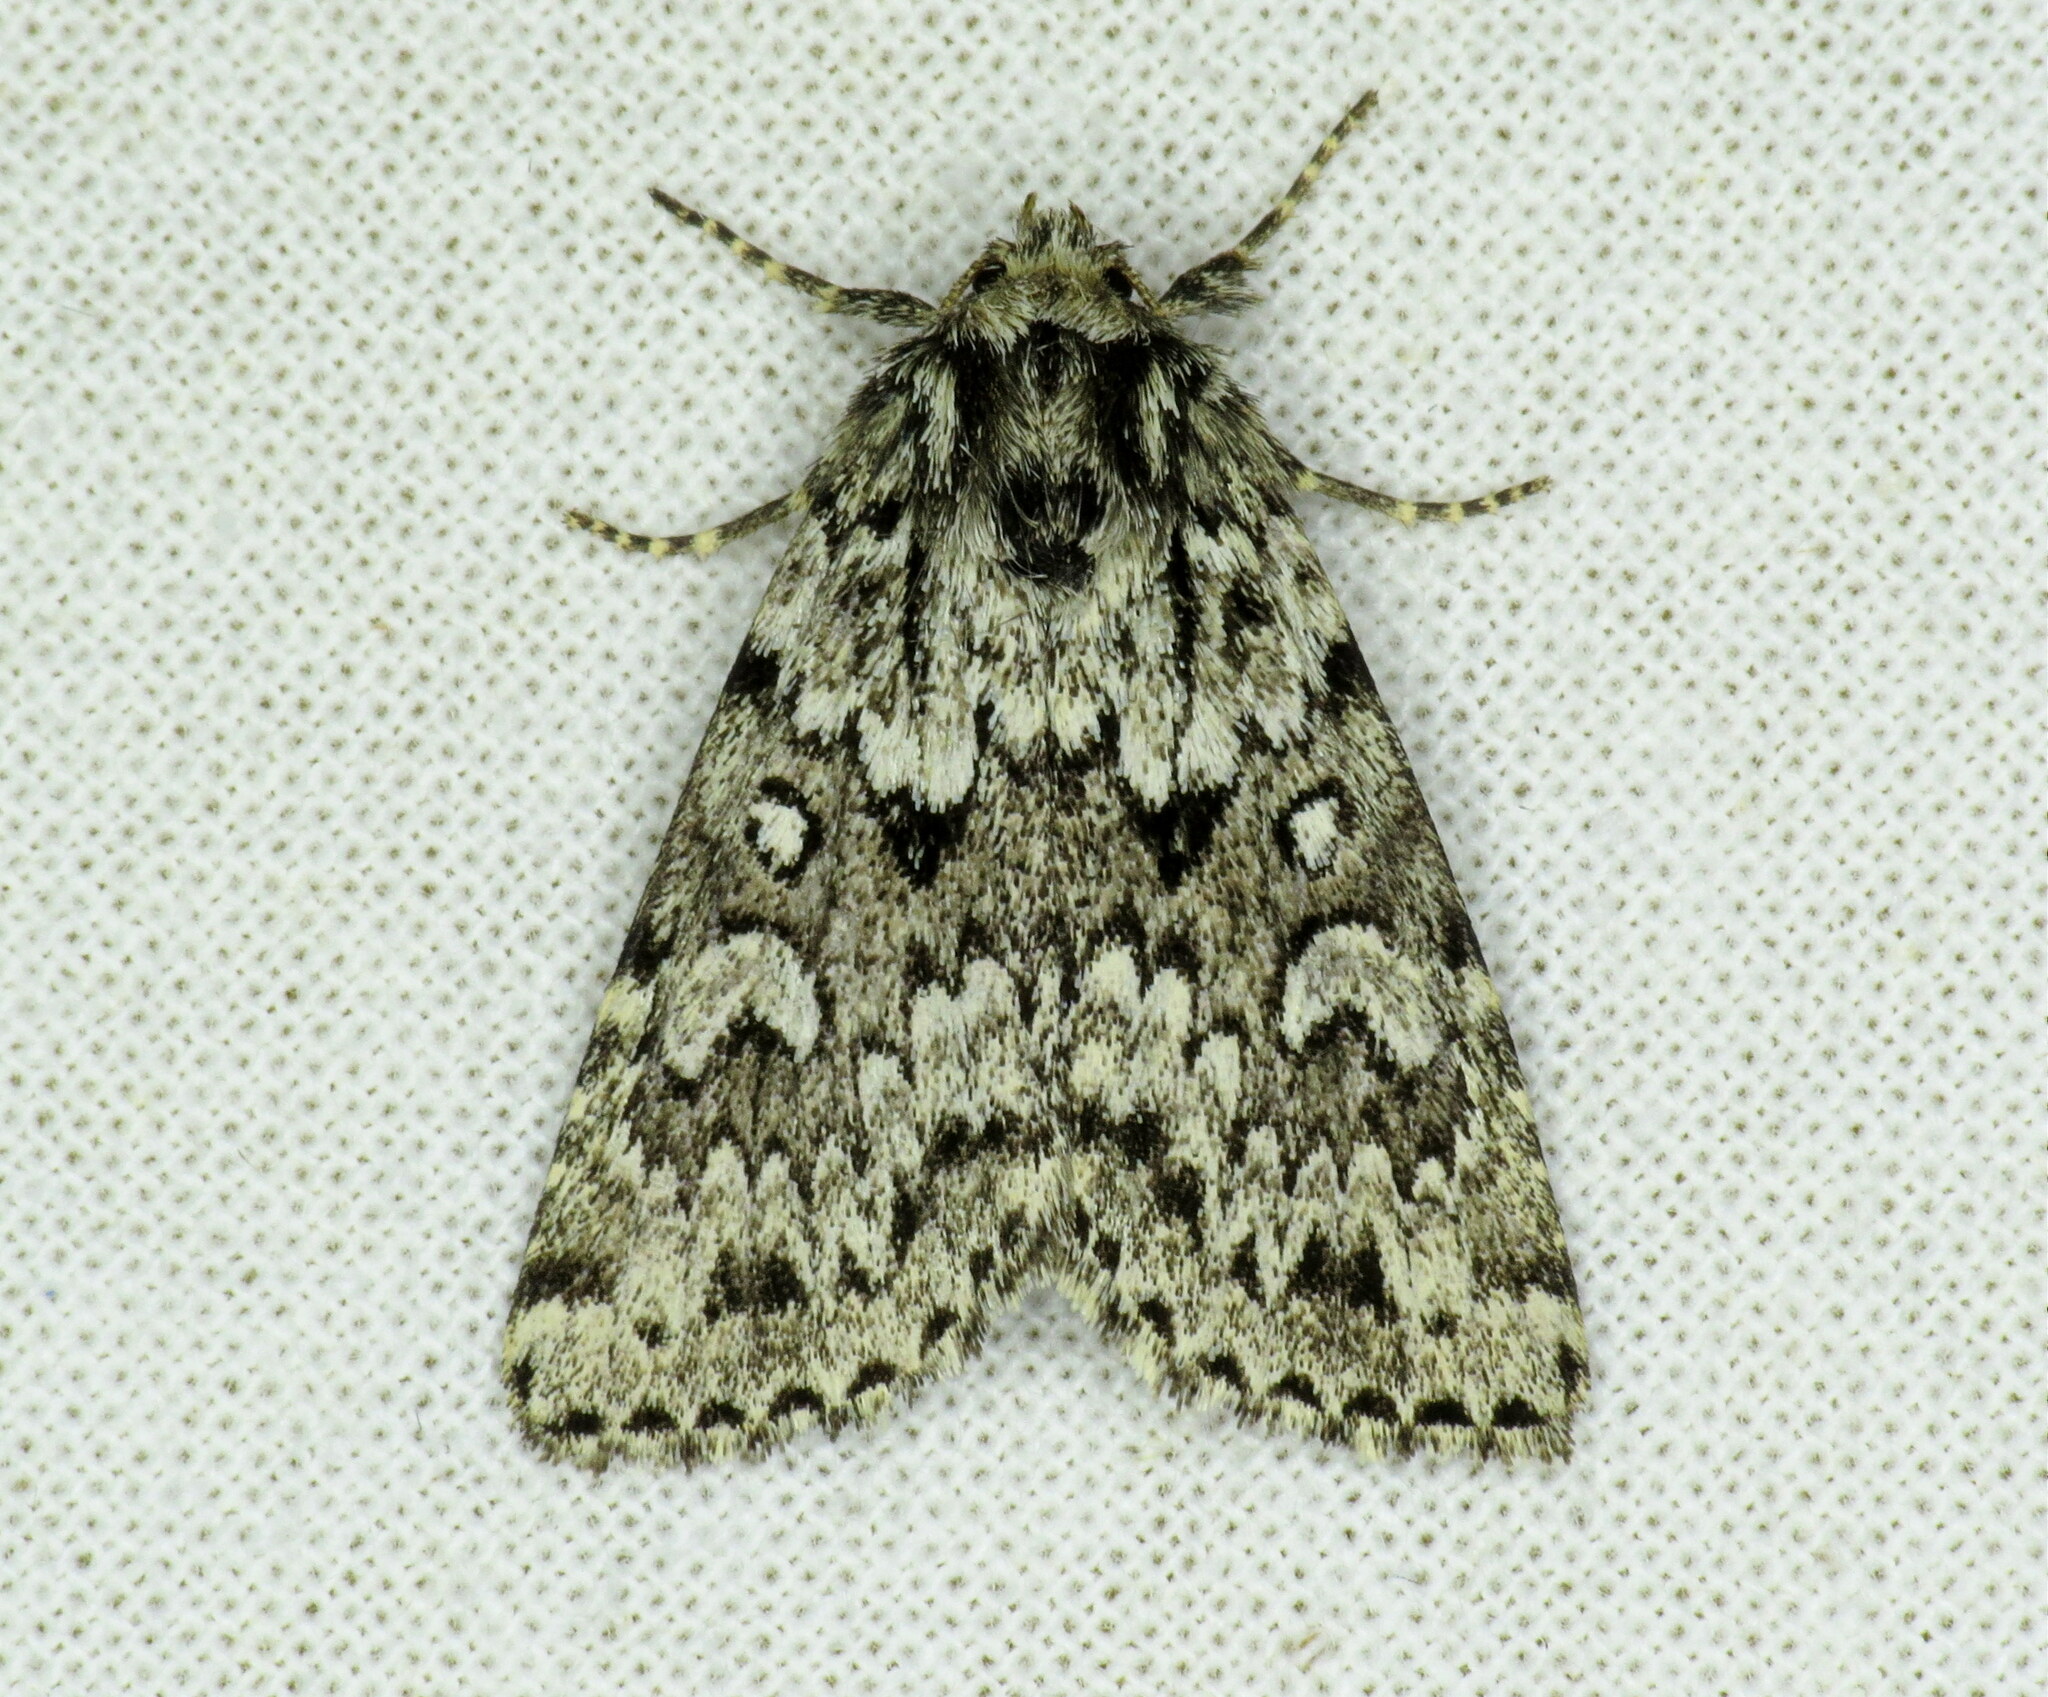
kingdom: Animalia
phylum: Arthropoda
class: Insecta
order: Lepidoptera
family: Noctuidae
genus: Xestia
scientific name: Xestia perquiritata
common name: Boomerang dart
